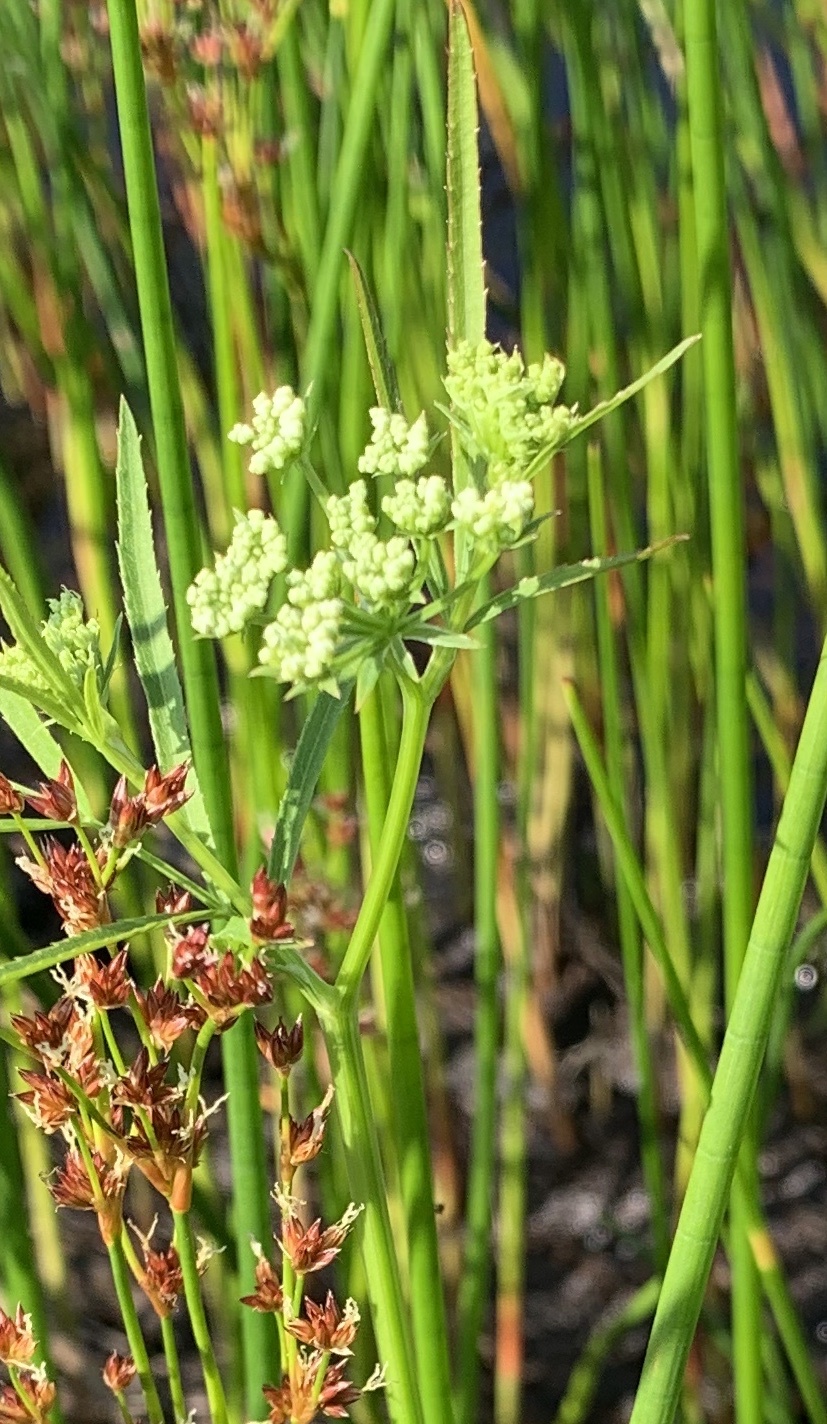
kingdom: Plantae
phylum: Tracheophyta
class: Magnoliopsida
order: Apiales
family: Apiaceae
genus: Sium
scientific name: Sium suave
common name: Hemlock water-parsnip
